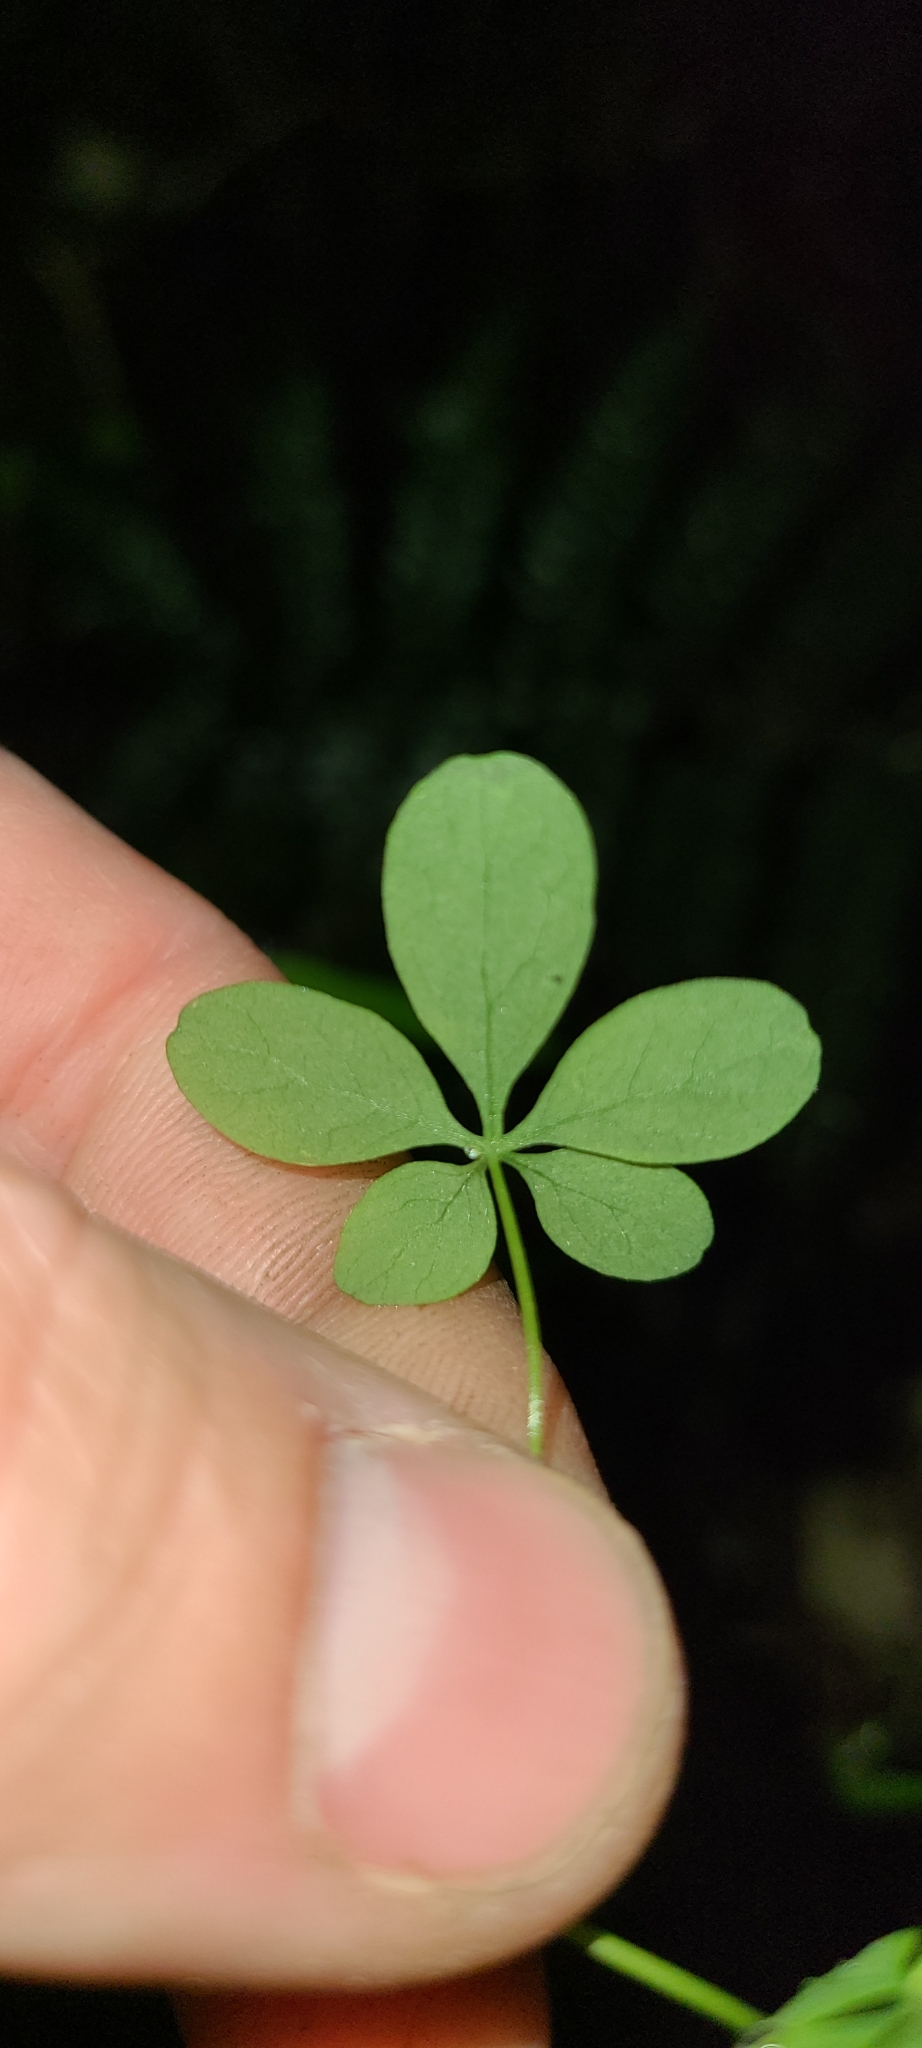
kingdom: Plantae
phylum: Tracheophyta
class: Magnoliopsida
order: Brassicales
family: Tropaeolaceae
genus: Tropaeolum
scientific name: Tropaeolum speciosum
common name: Flame nasturtium
